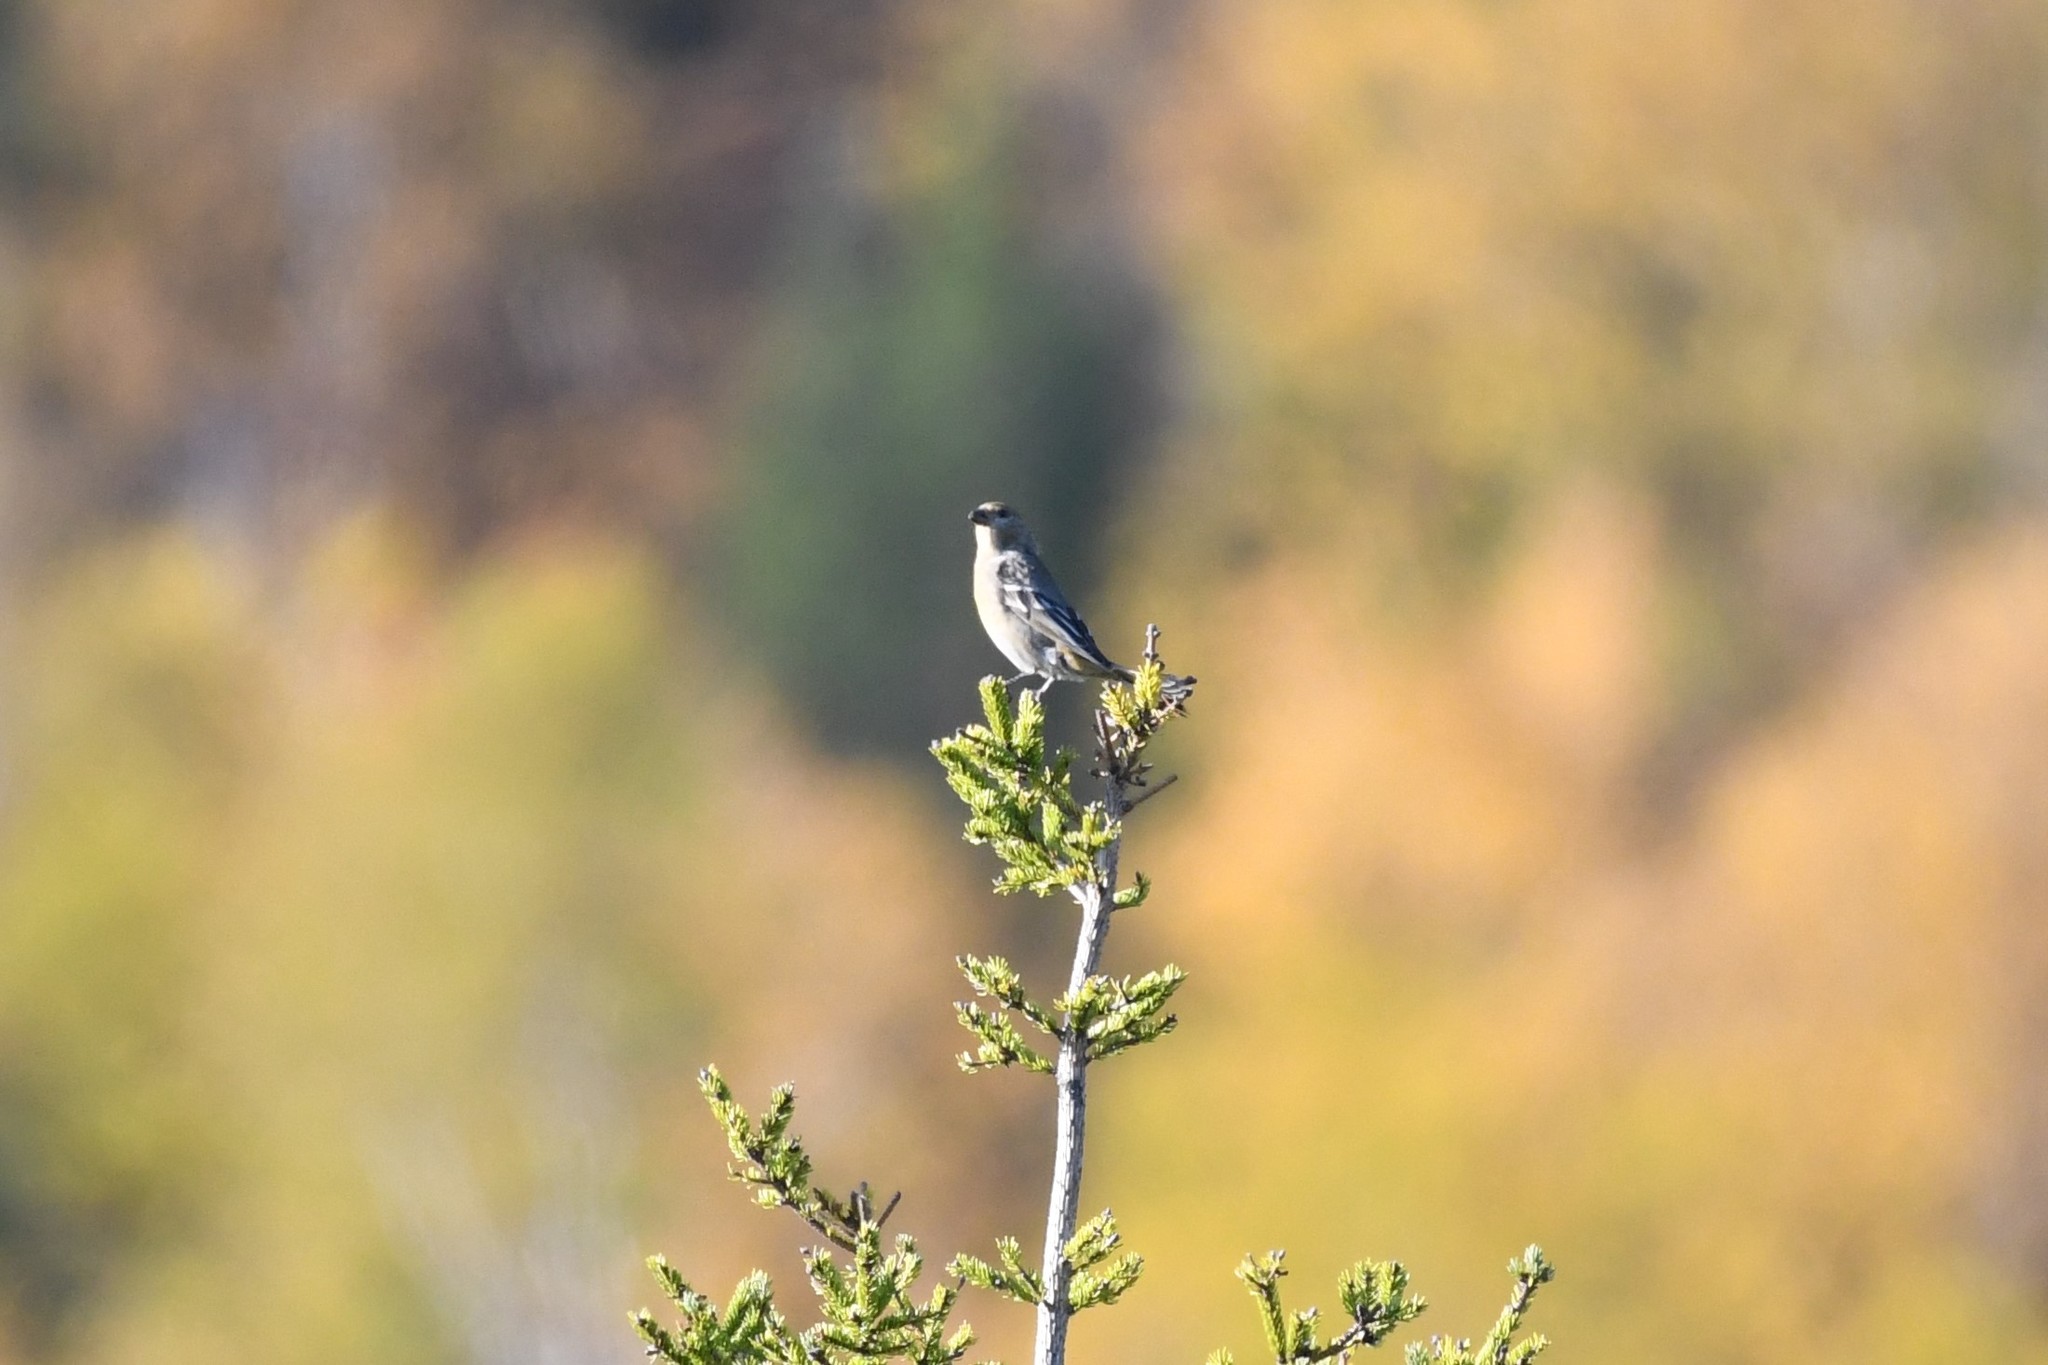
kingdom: Animalia
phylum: Chordata
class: Aves
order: Passeriformes
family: Fringillidae
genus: Pinicola
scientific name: Pinicola enucleator
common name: Pine grosbeak
